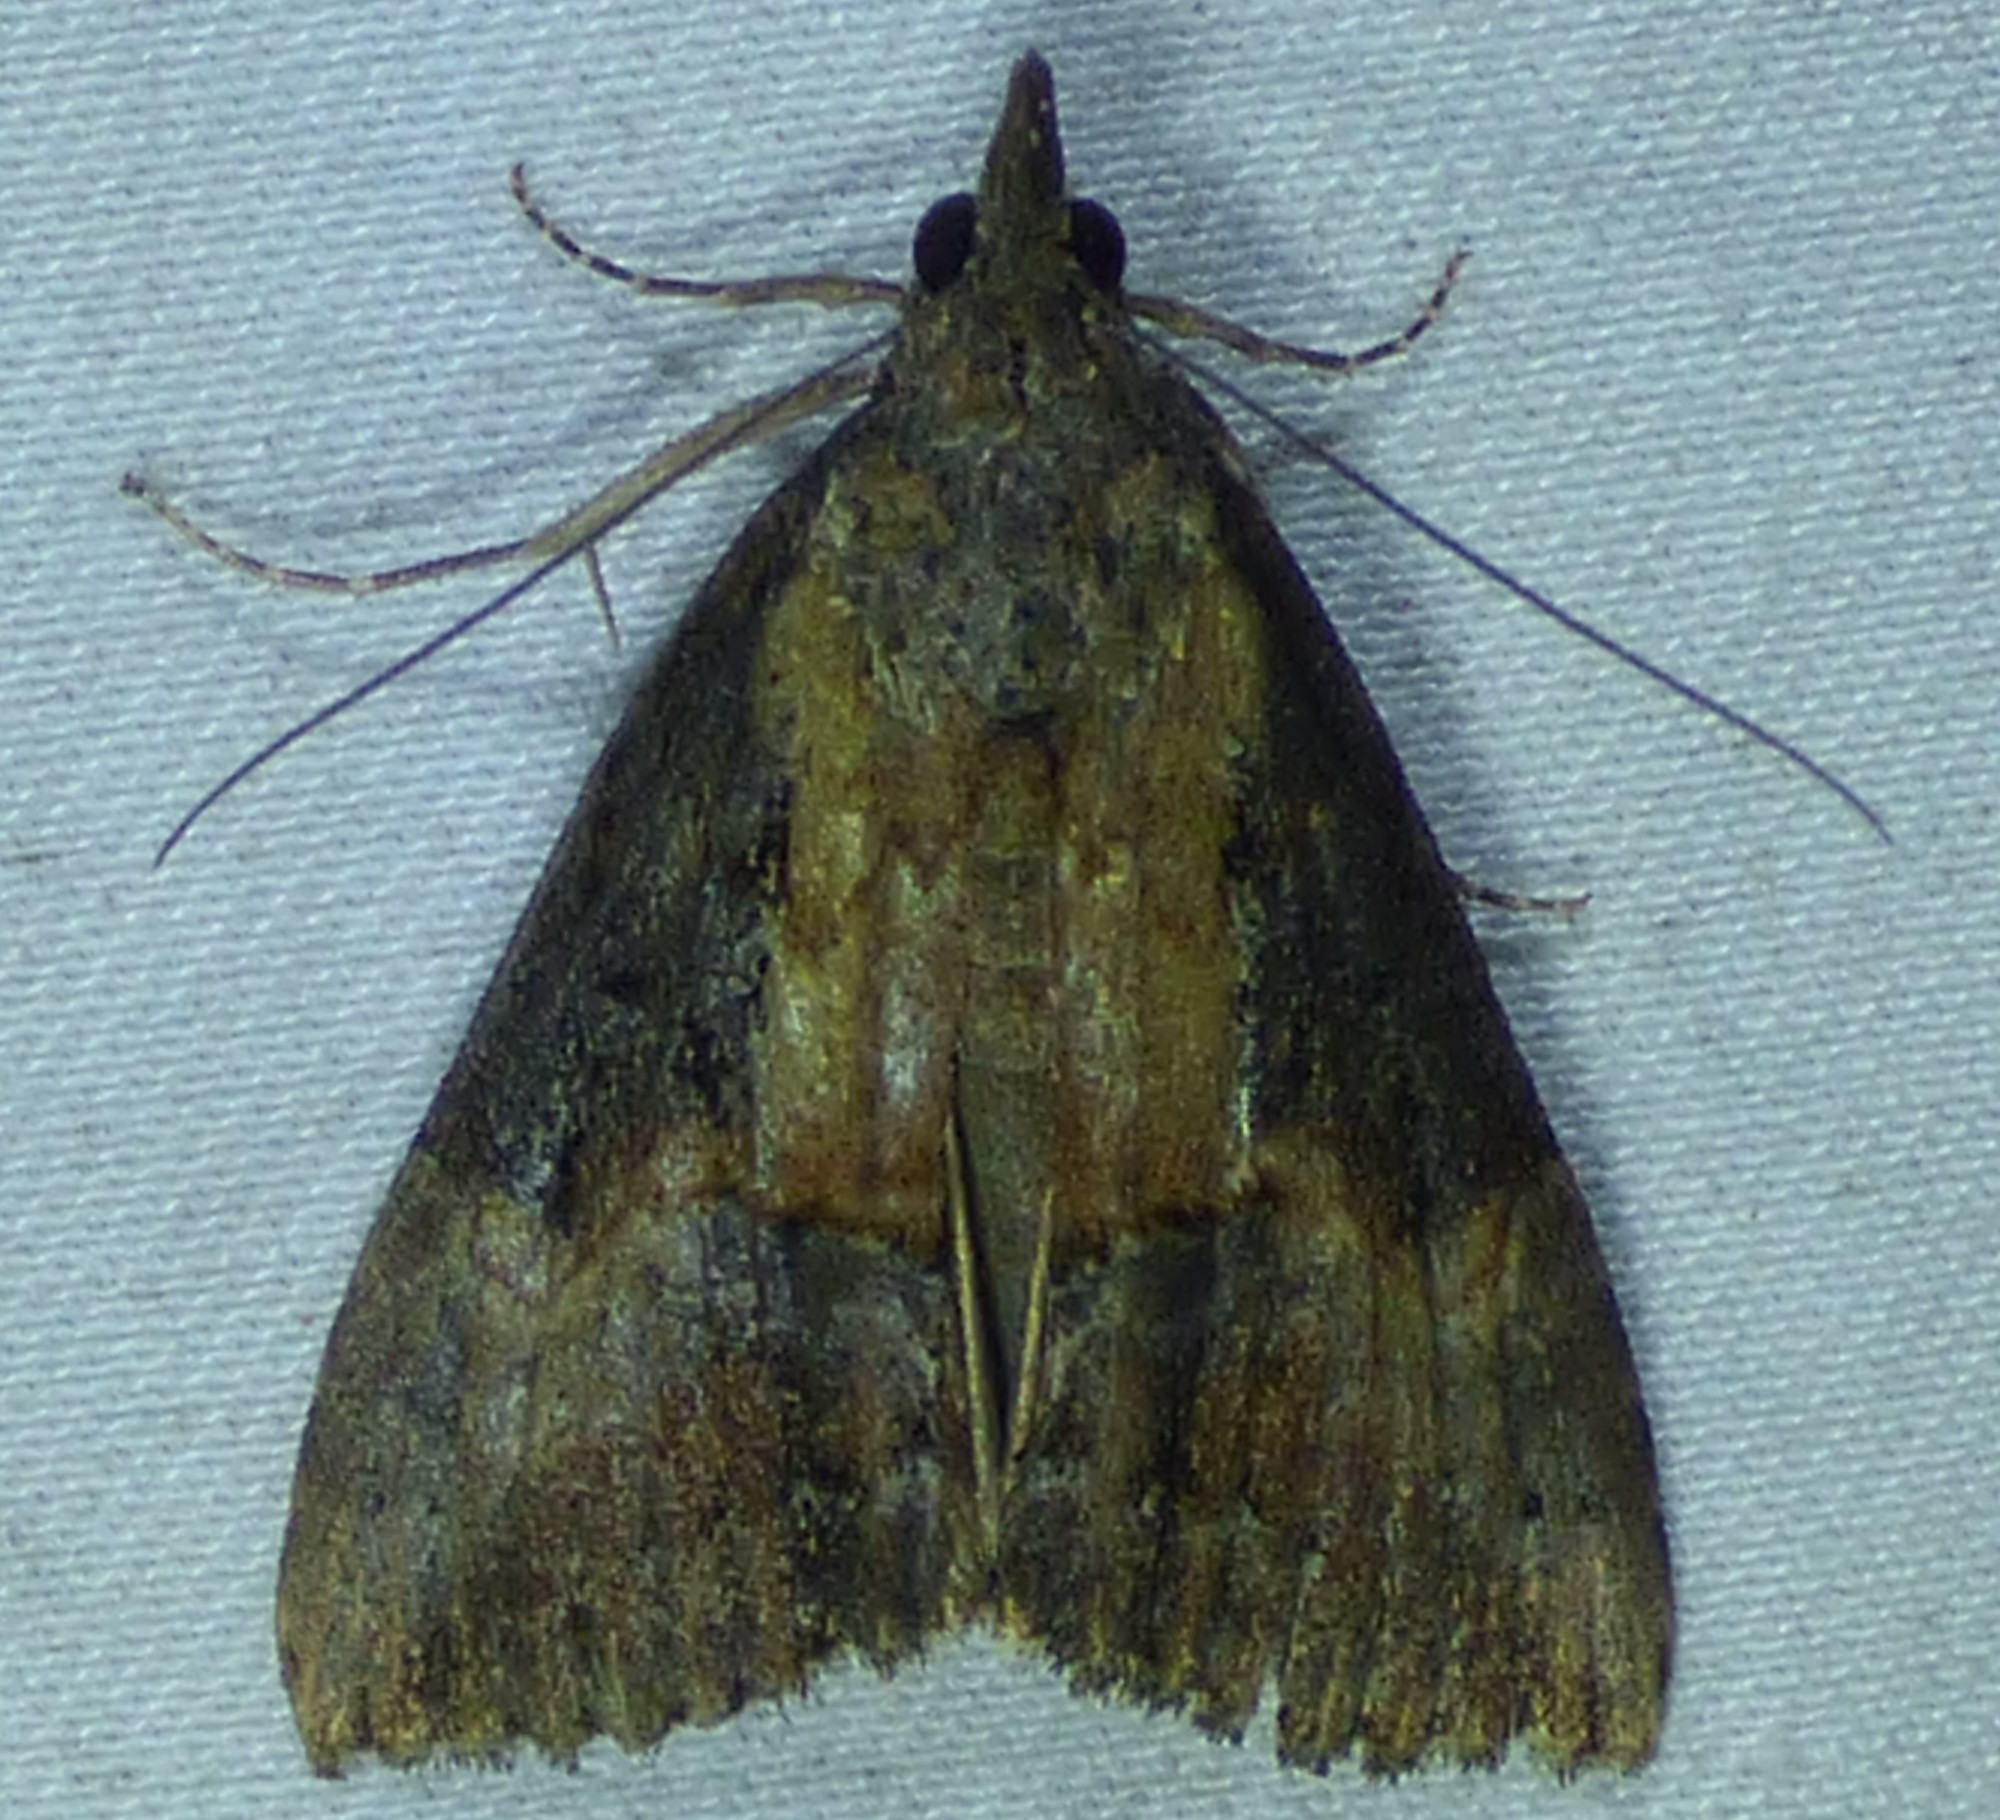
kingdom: Animalia
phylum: Arthropoda
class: Insecta
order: Lepidoptera
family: Erebidae
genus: Hypena
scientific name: Hypena scabra
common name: Green cloverworm
